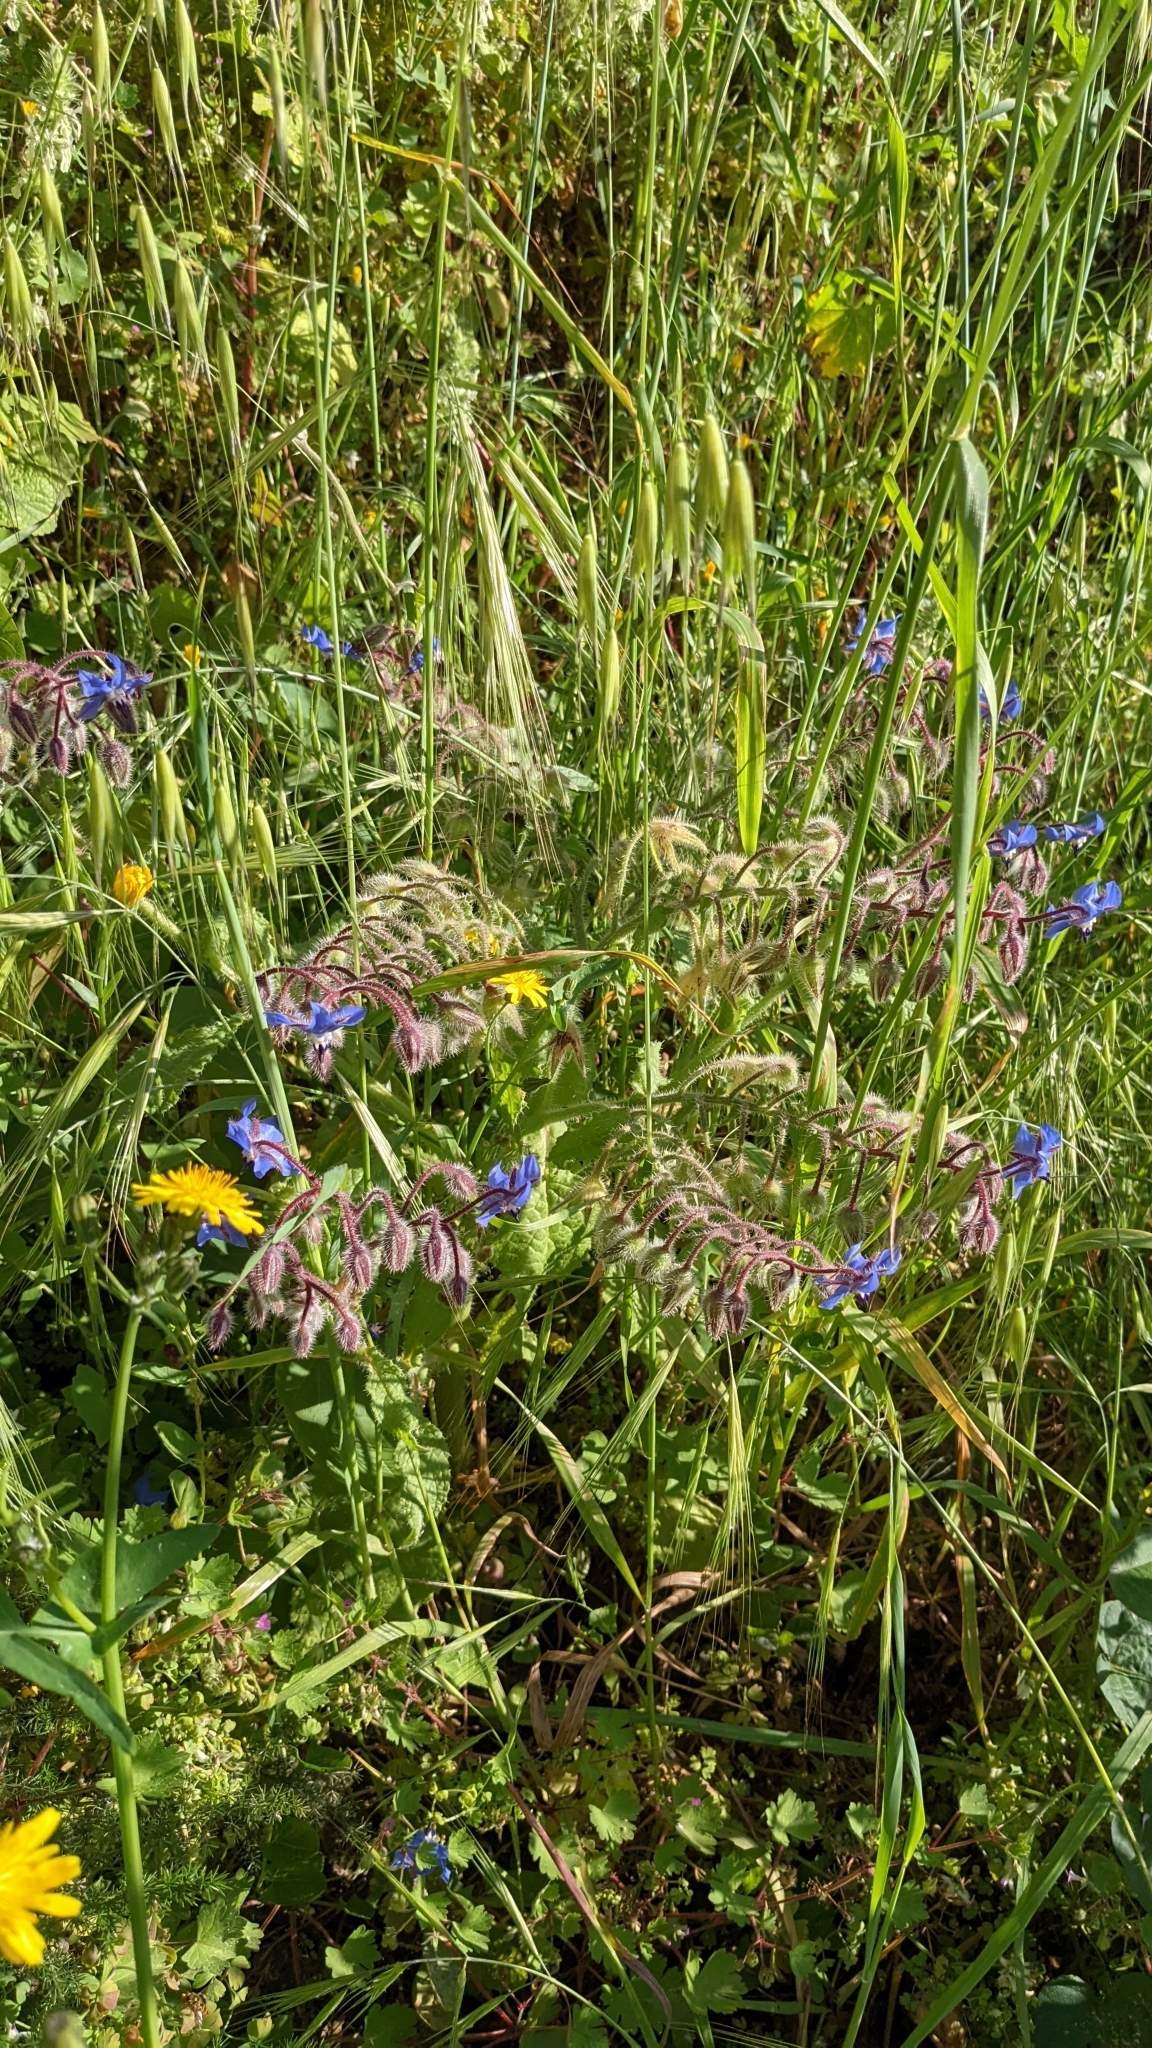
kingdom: Plantae
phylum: Tracheophyta
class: Magnoliopsida
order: Boraginales
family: Boraginaceae
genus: Borago
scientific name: Borago officinalis
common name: Borage
